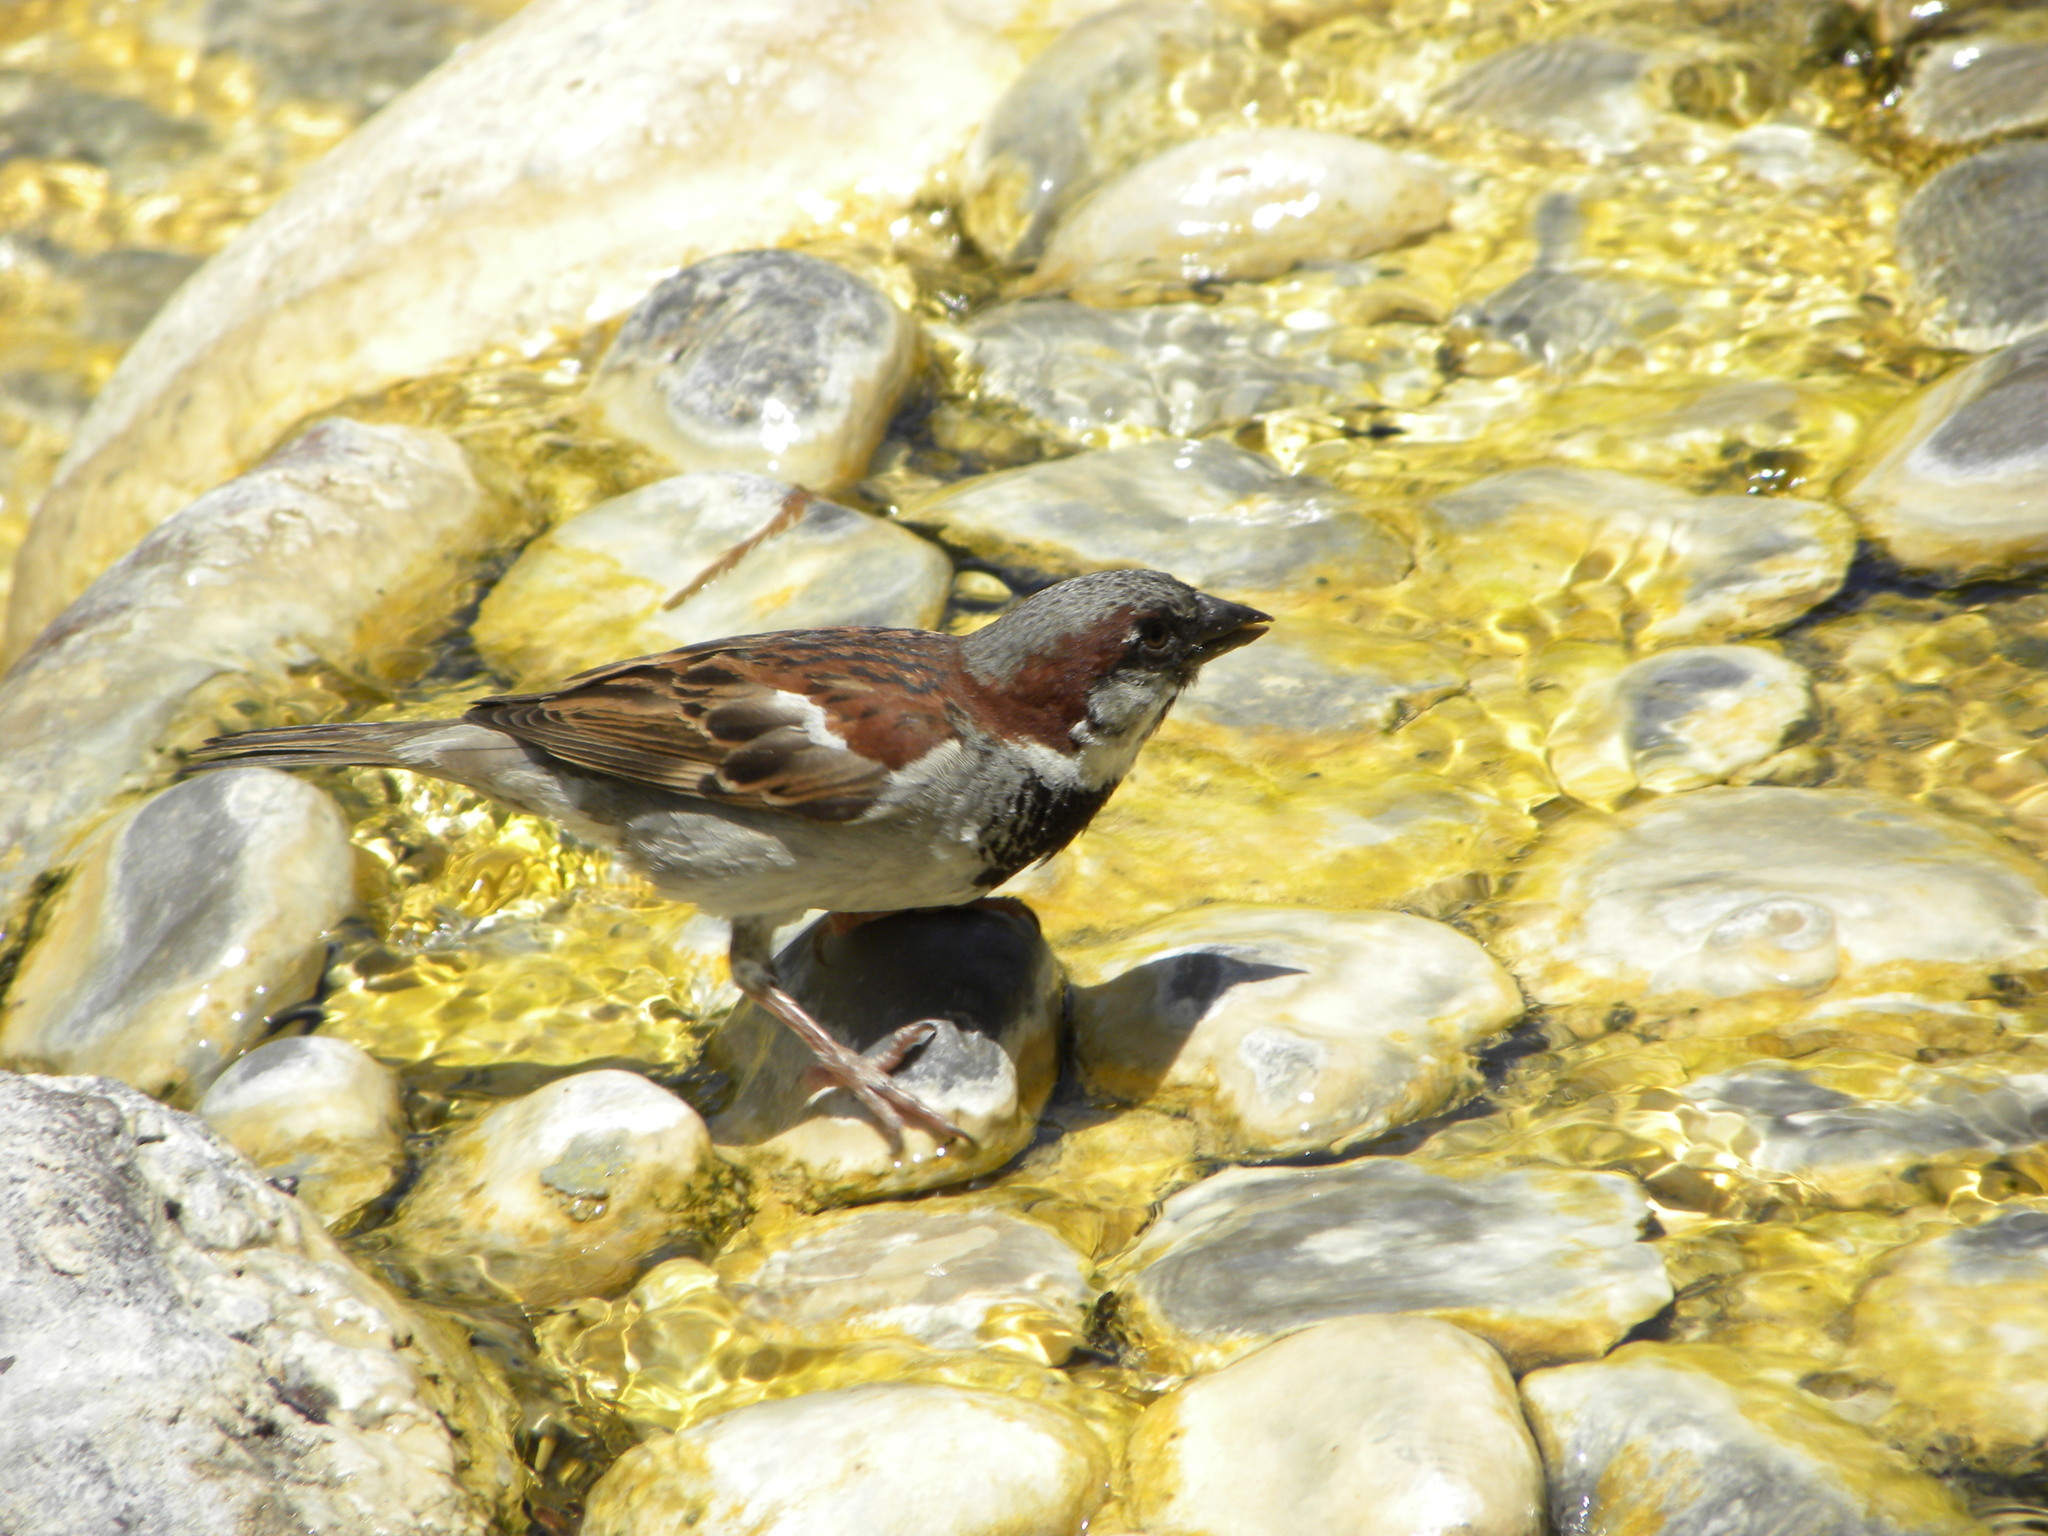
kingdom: Animalia
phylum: Chordata
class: Aves
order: Passeriformes
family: Passeridae
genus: Passer
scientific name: Passer domesticus
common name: House sparrow
